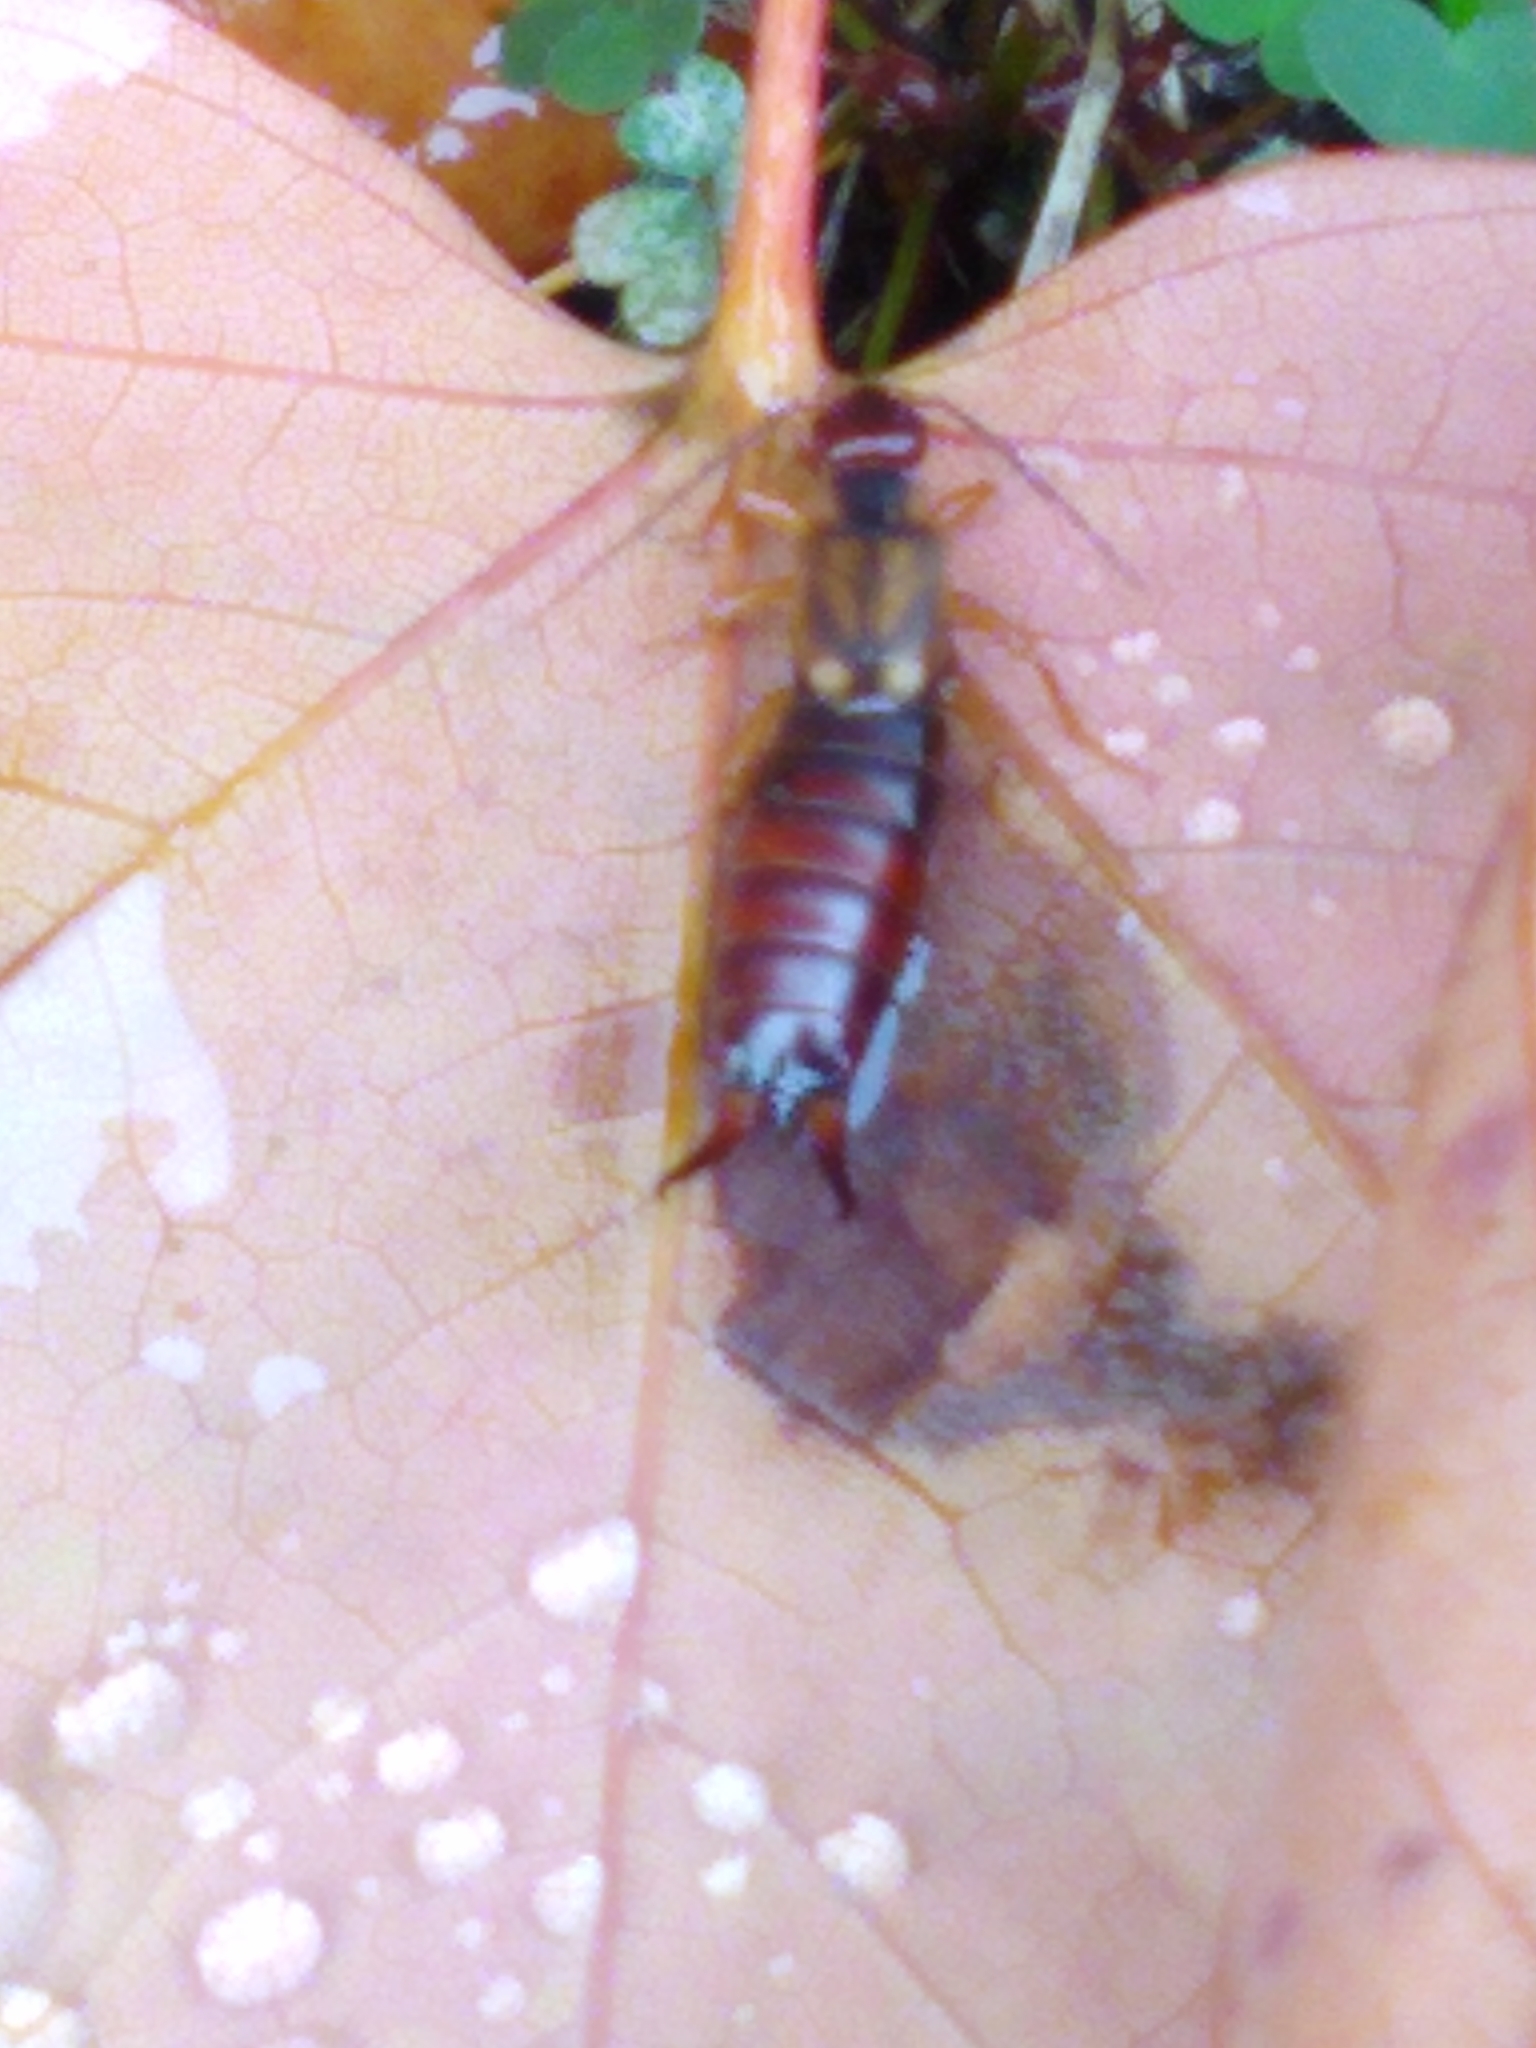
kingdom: Animalia
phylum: Arthropoda
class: Insecta
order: Dermaptera
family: Forficulidae
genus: Forficula
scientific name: Forficula
